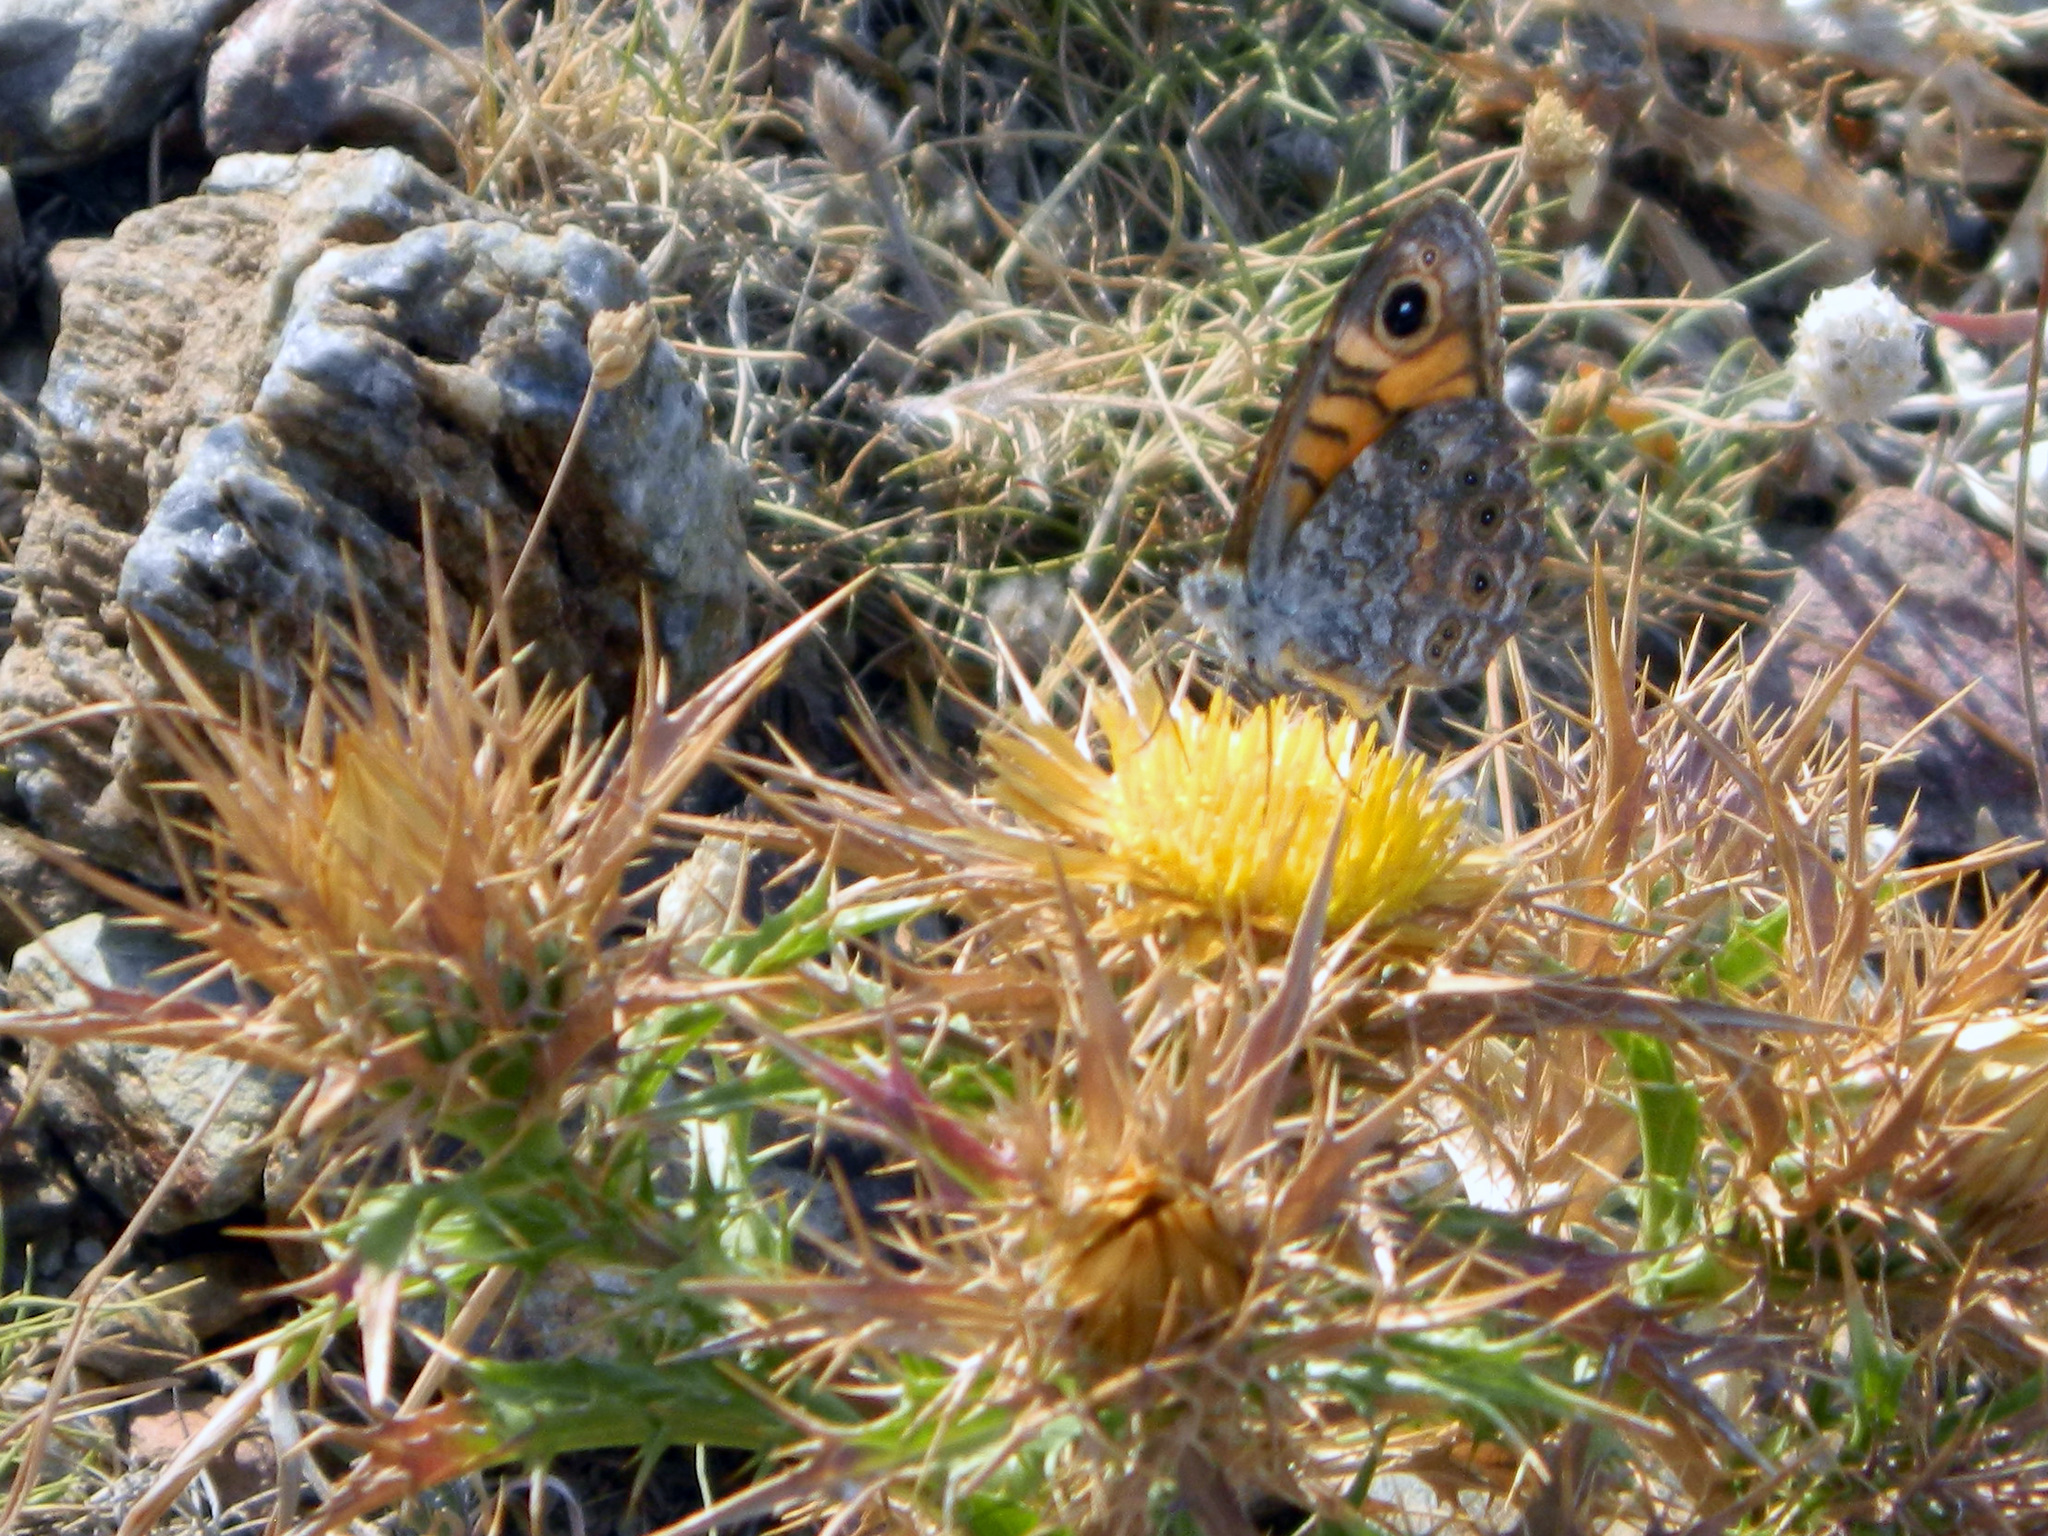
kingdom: Animalia
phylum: Arthropoda
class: Insecta
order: Lepidoptera
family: Nymphalidae
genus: Pararge
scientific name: Pararge Lasiommata megera
